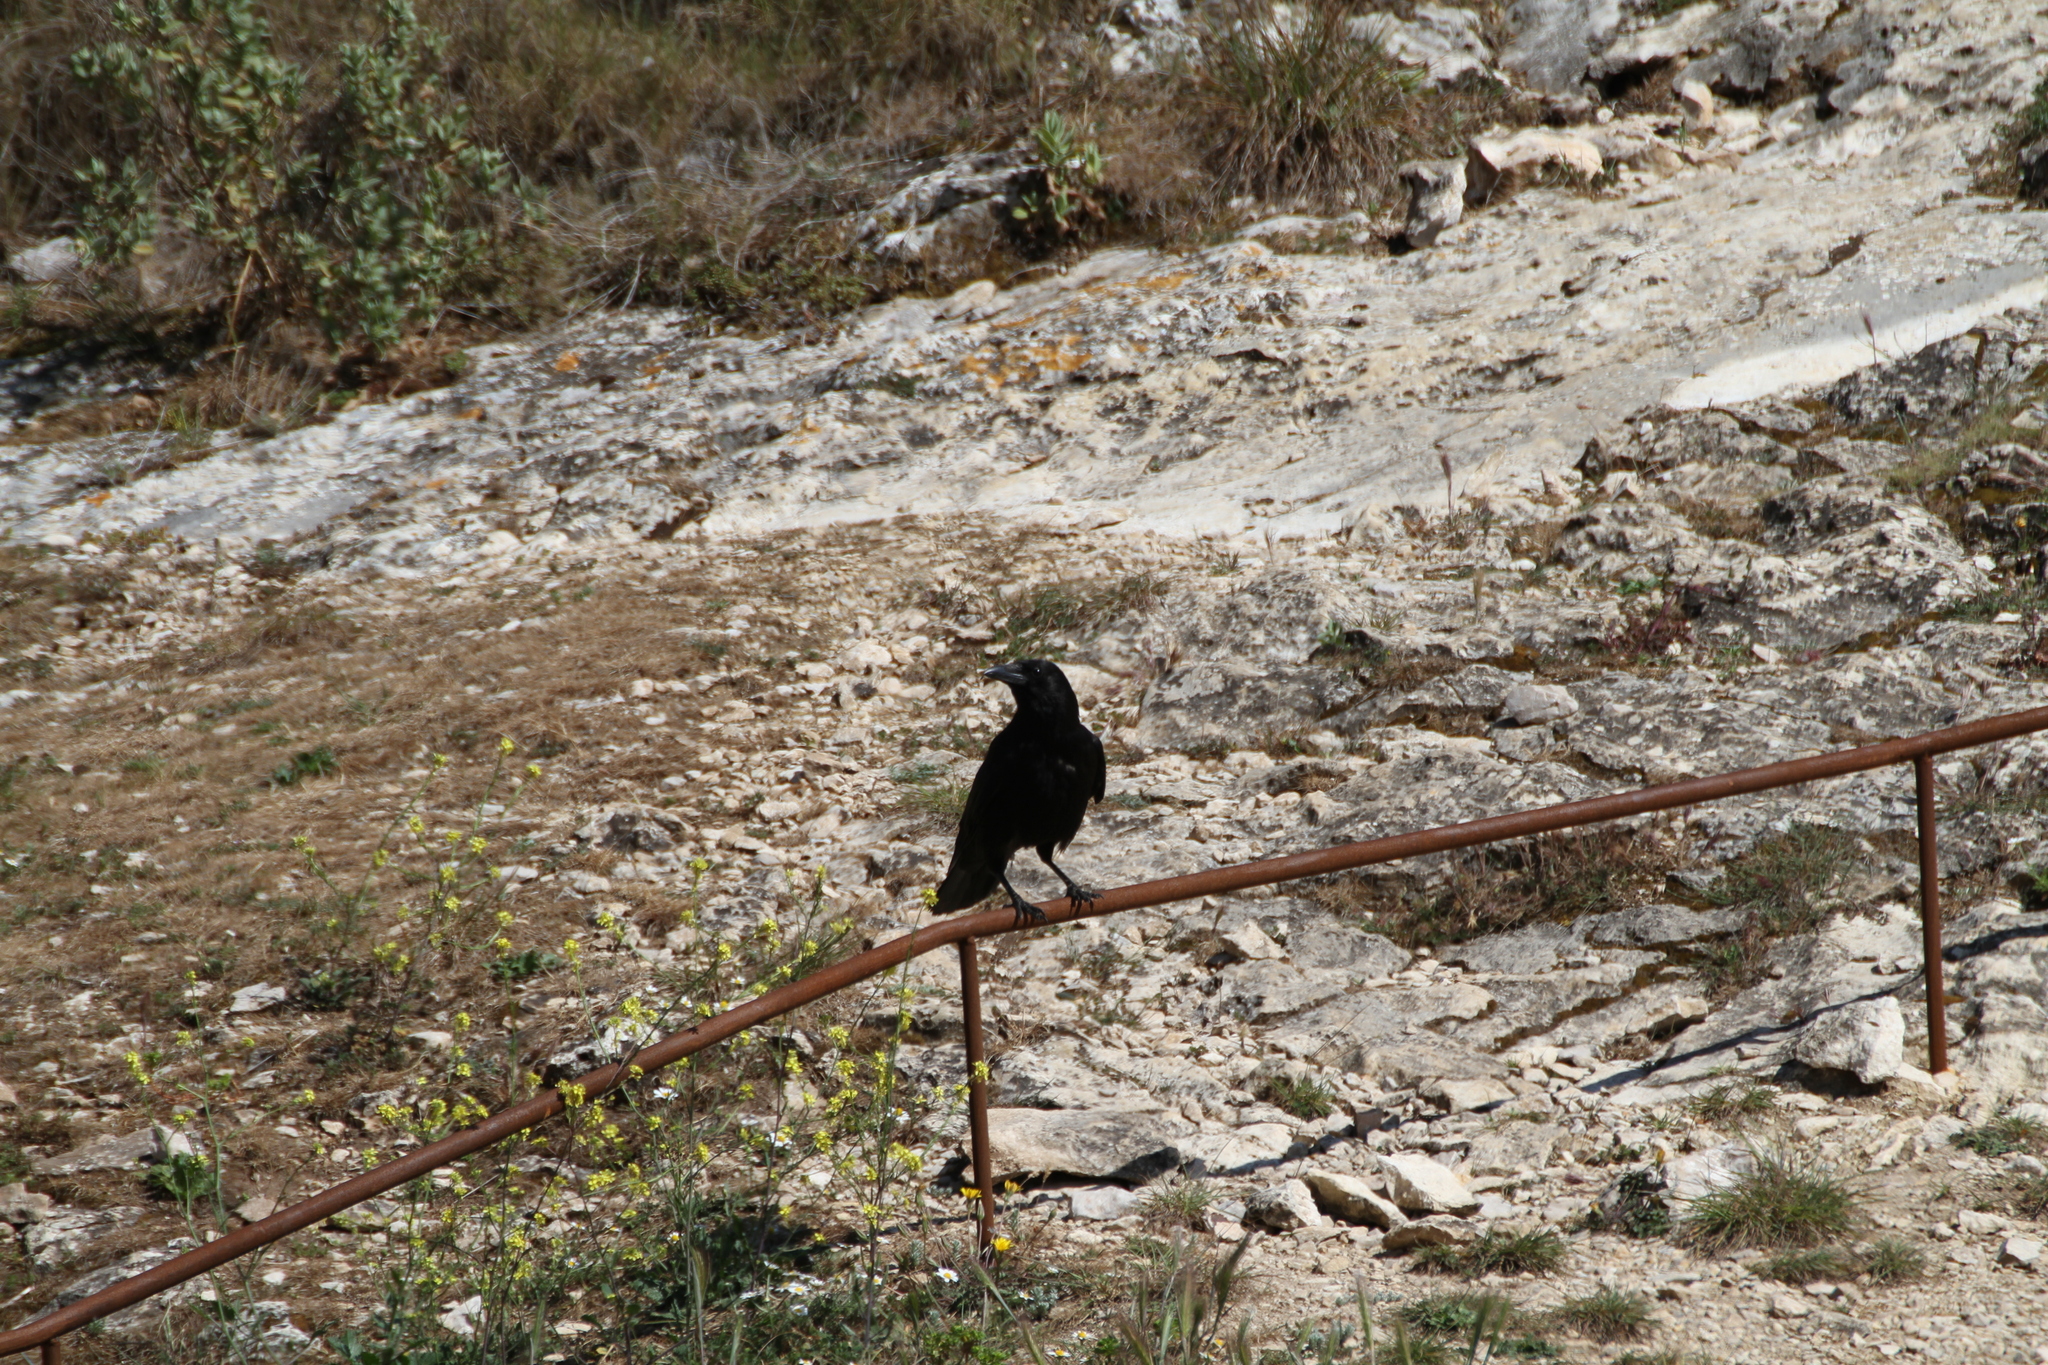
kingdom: Animalia
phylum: Chordata
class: Aves
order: Passeriformes
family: Corvidae
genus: Corvus
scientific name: Corvus corone
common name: Carrion crow
